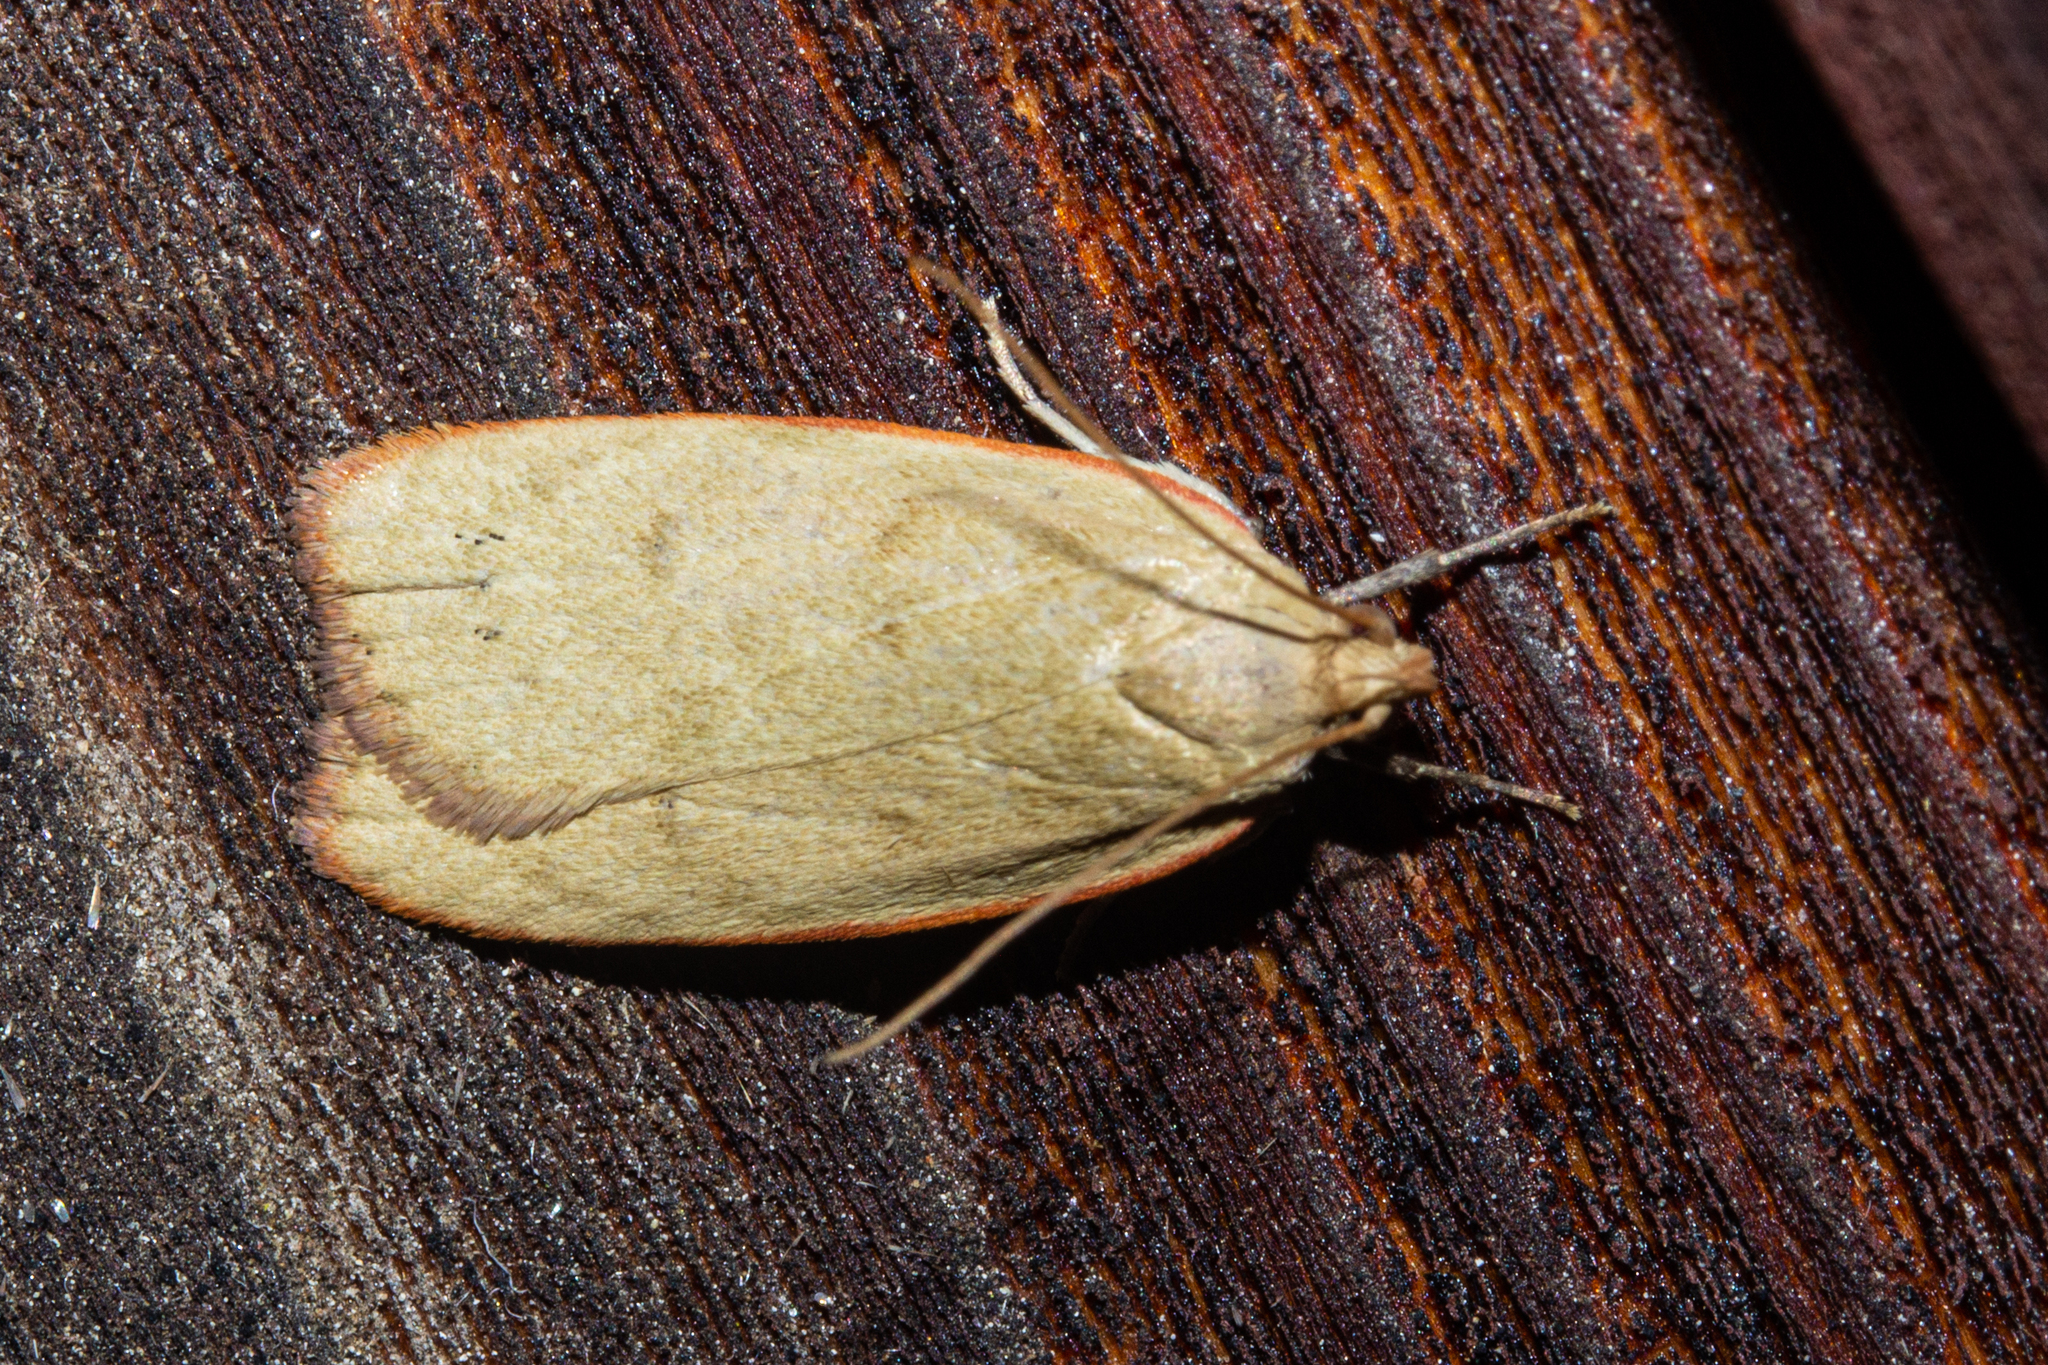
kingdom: Animalia
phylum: Arthropoda
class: Insecta
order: Lepidoptera
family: Depressariidae
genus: Phaeosaces
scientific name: Phaeosaces coarctatella
